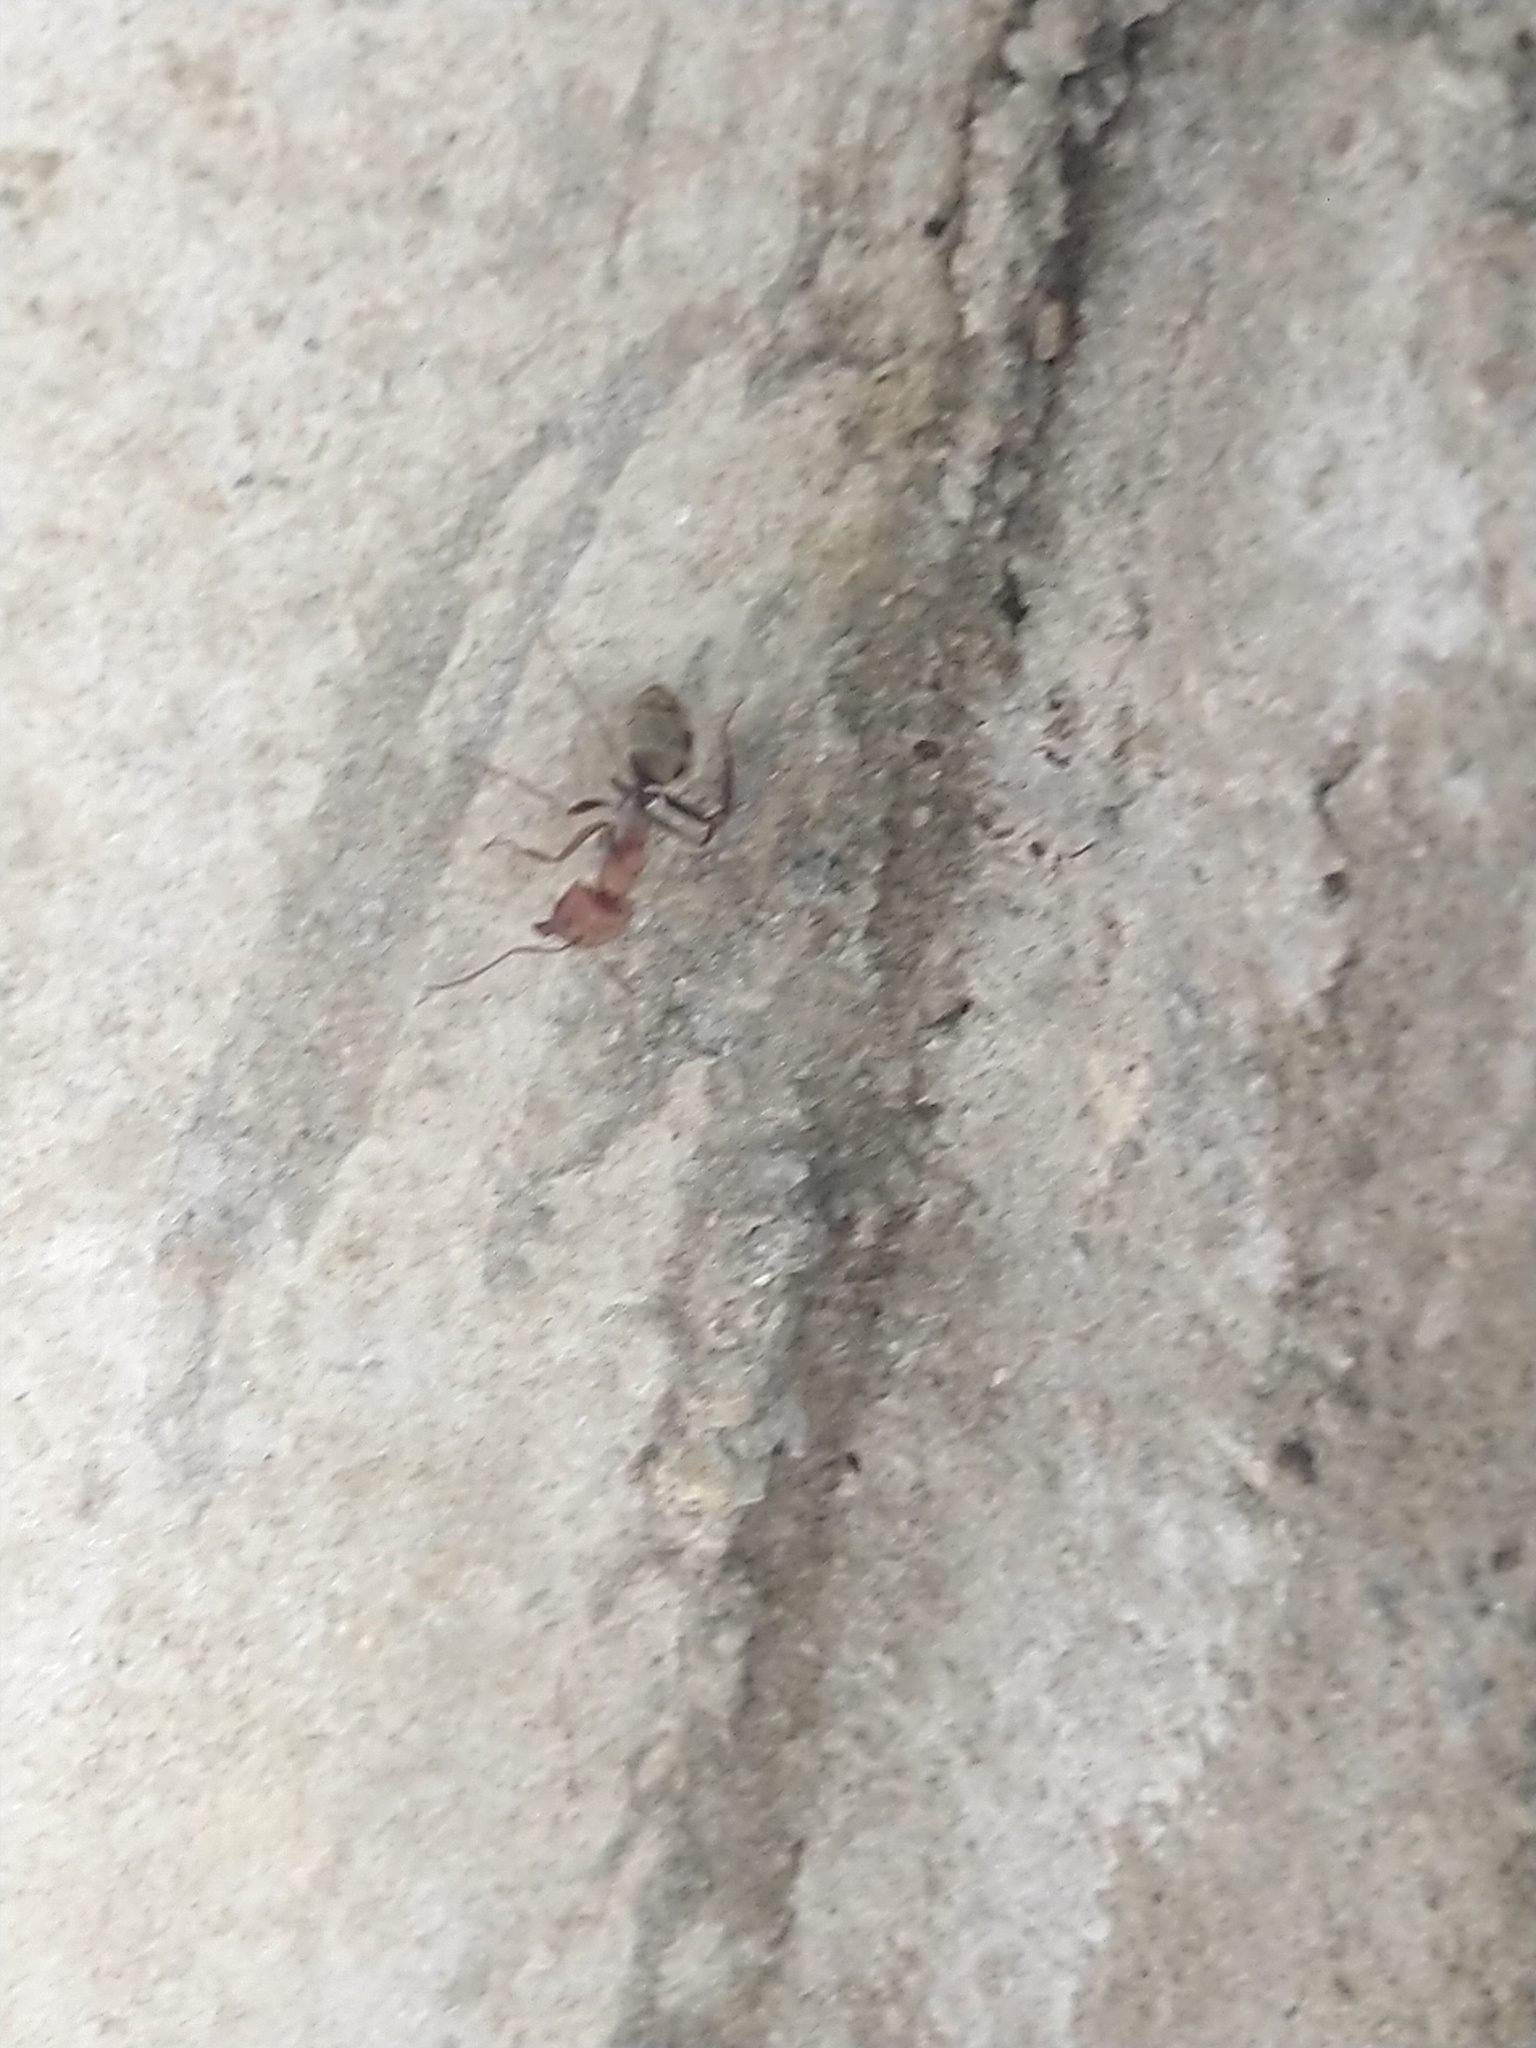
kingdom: Animalia
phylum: Arthropoda
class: Insecta
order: Hymenoptera
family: Formicidae
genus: Camponotus
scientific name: Camponotus rufoglaucus
